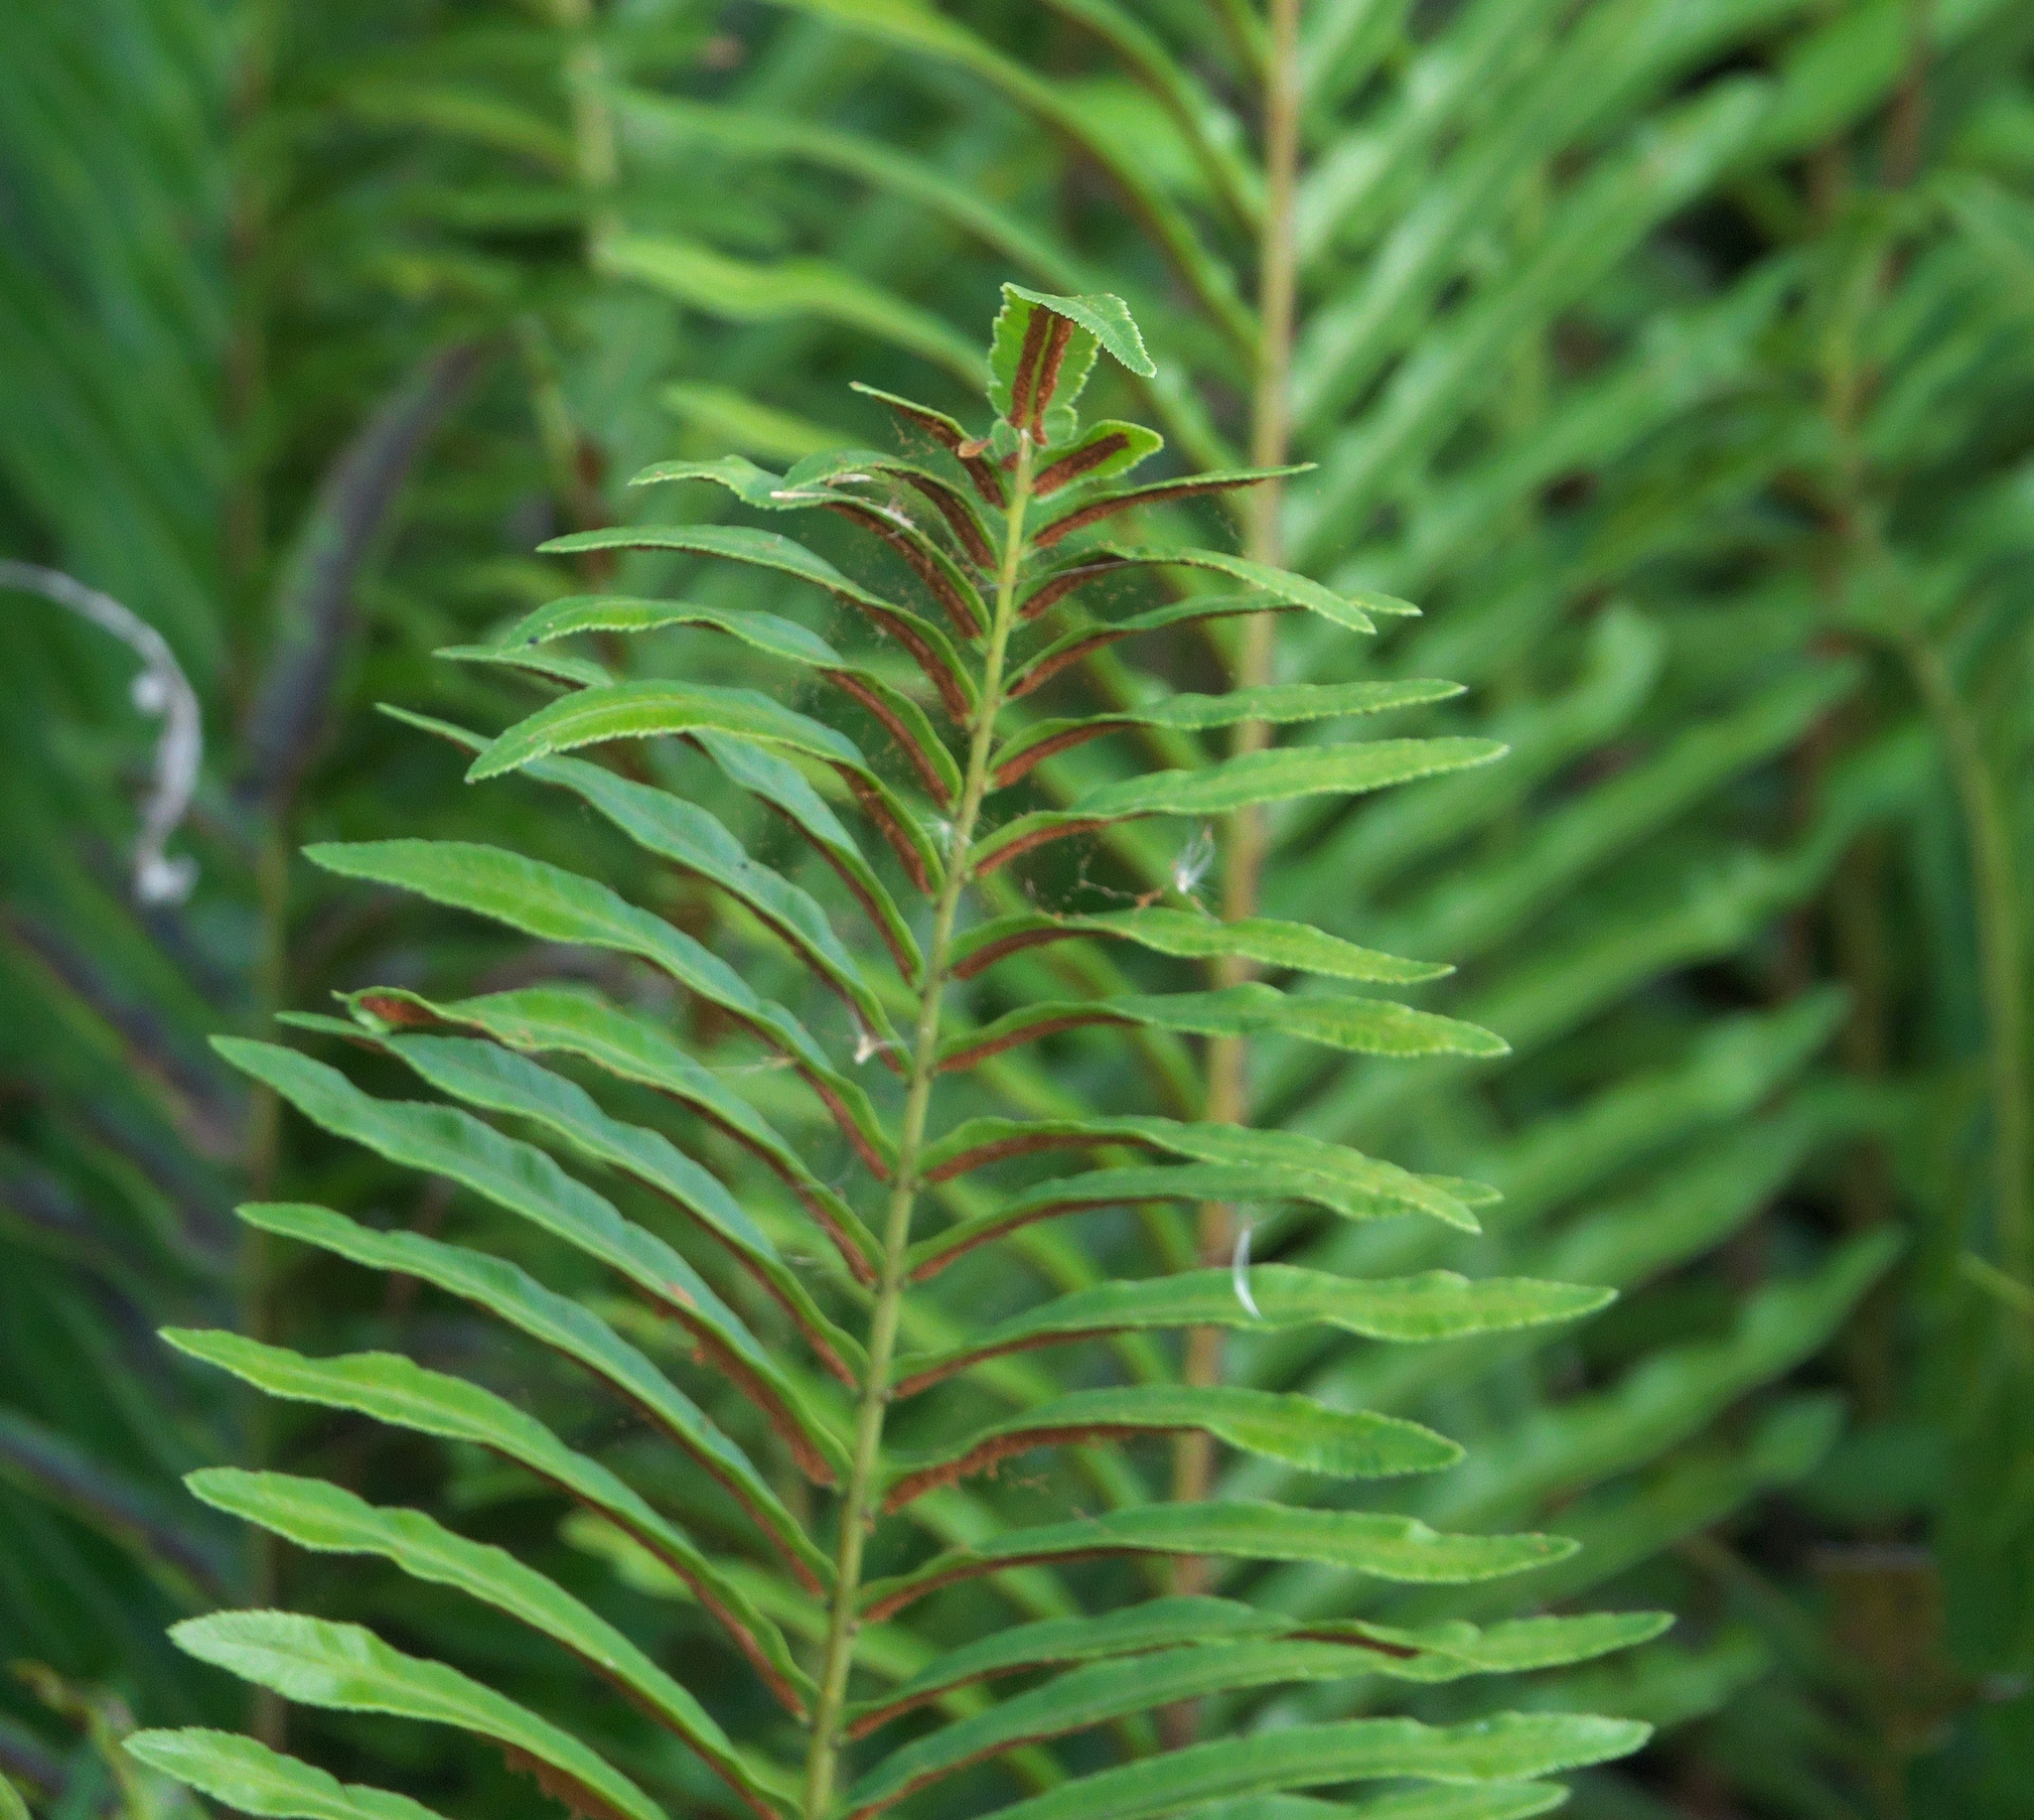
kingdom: Plantae
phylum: Tracheophyta
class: Polypodiopsida
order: Polypodiales
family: Blechnaceae
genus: Telmatoblechnum
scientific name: Telmatoblechnum serrulatum
